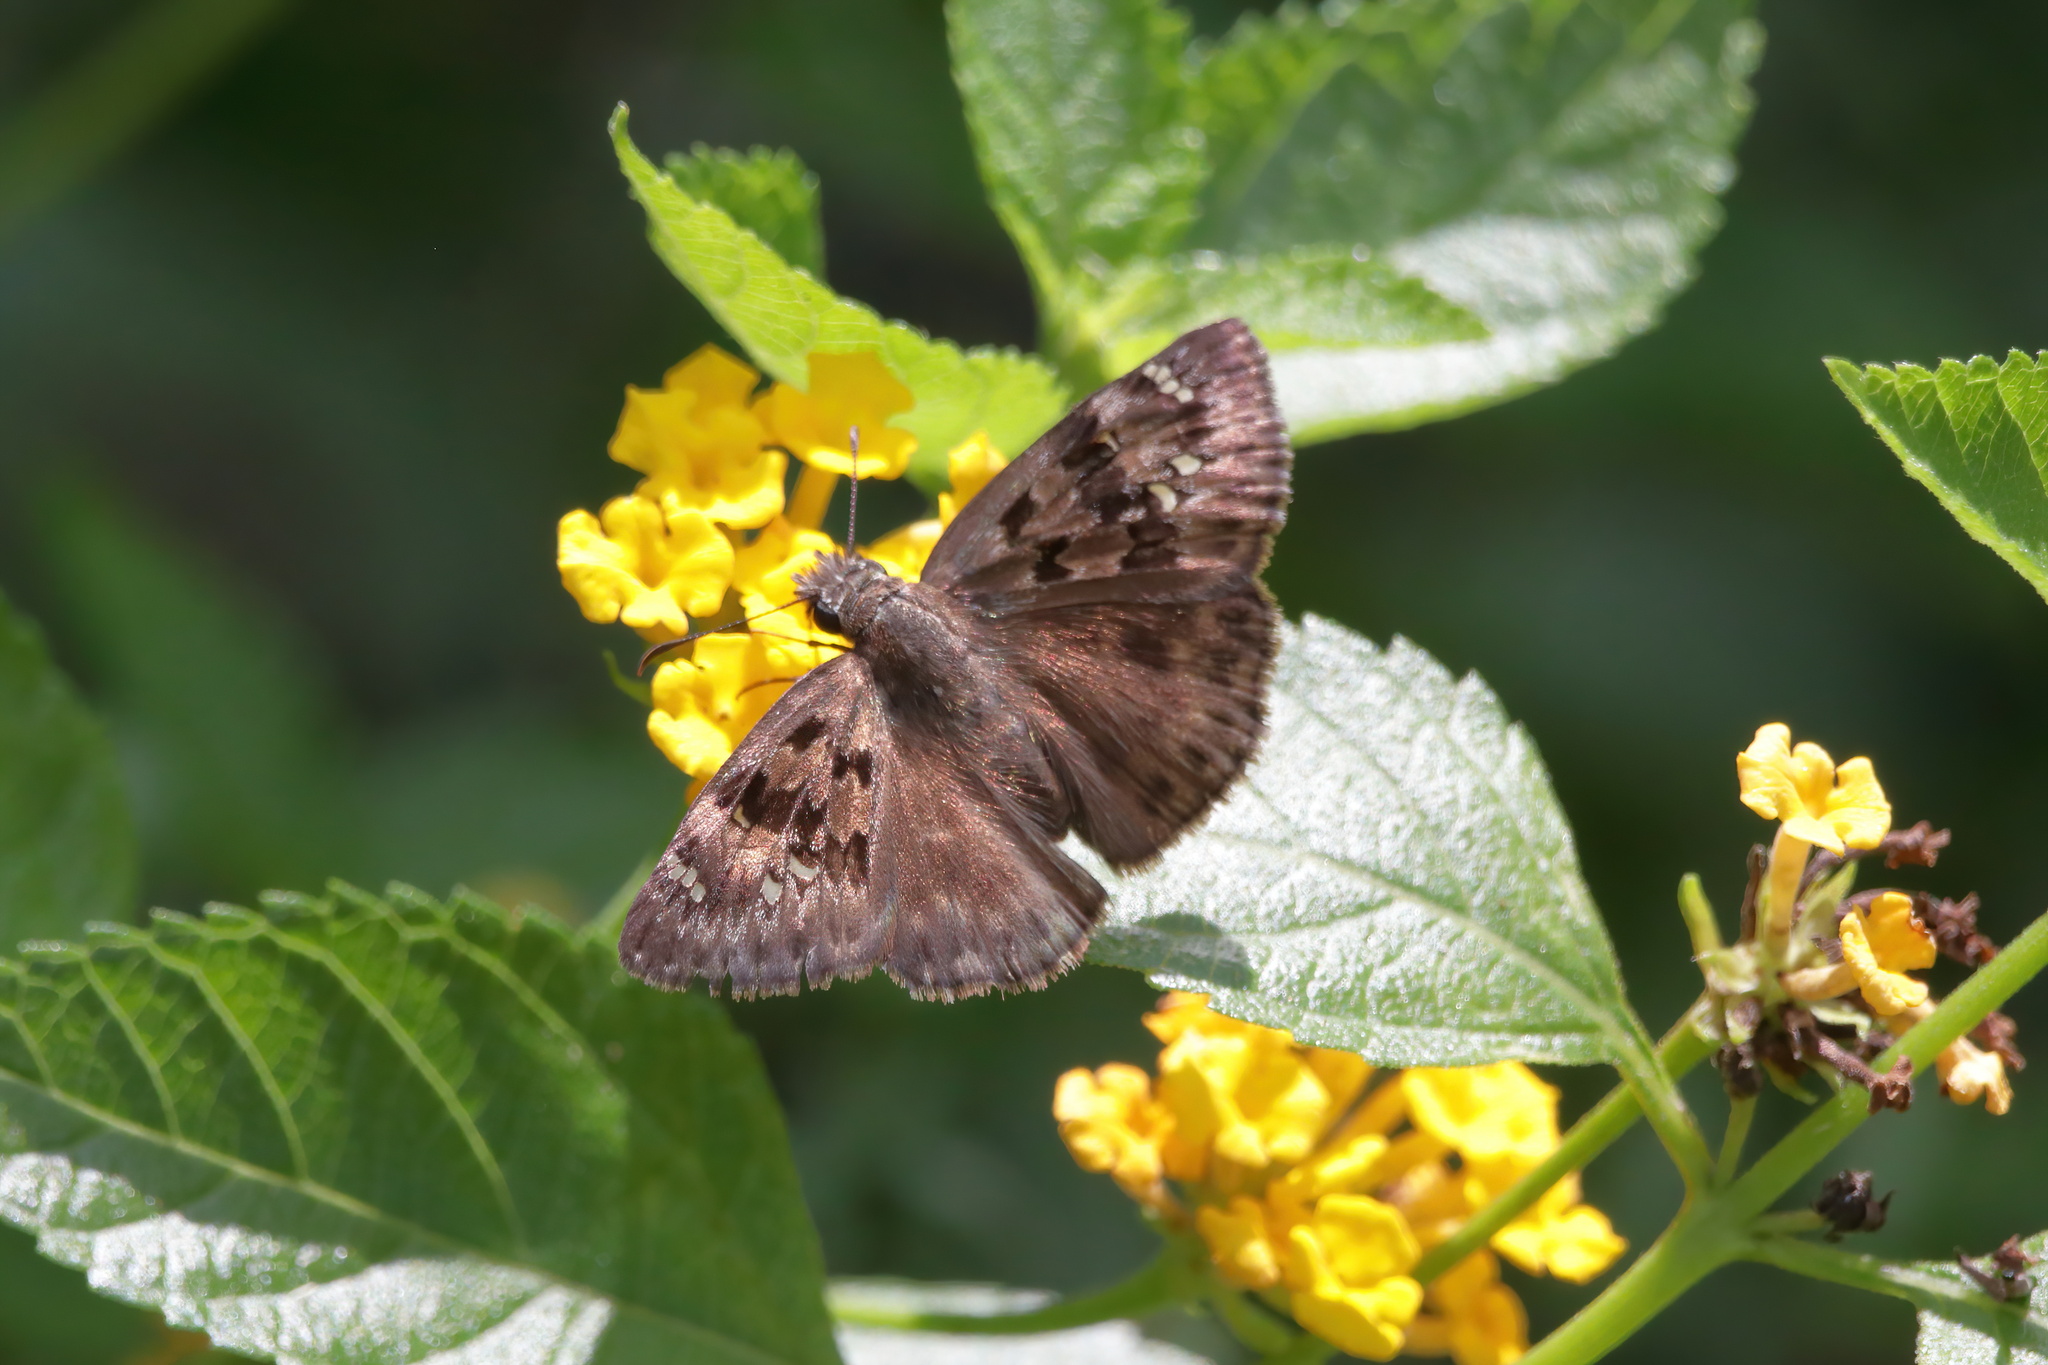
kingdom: Animalia
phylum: Arthropoda
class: Insecta
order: Lepidoptera
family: Hesperiidae
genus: Erynnis
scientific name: Erynnis horatius
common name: Horace's duskywing
